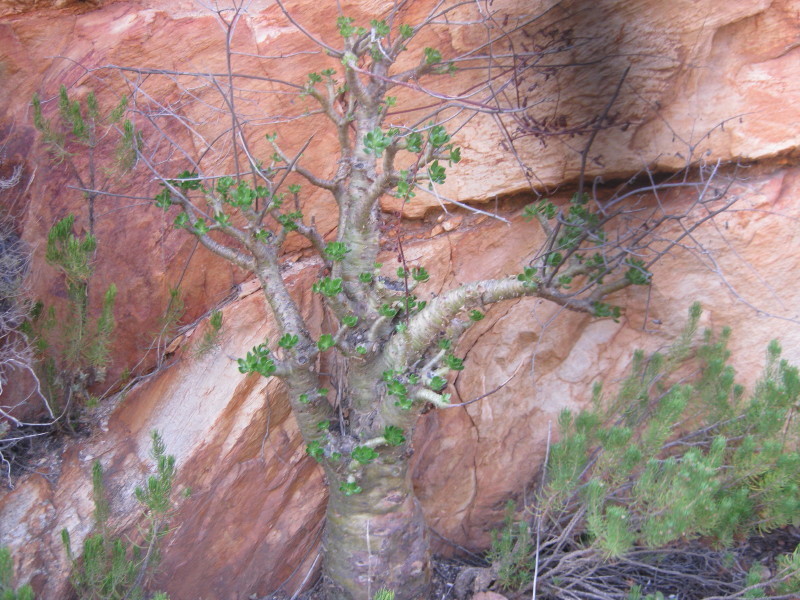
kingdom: Plantae
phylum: Tracheophyta
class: Magnoliopsida
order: Saxifragales
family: Crassulaceae
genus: Tylecodon
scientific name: Tylecodon paniculatus
